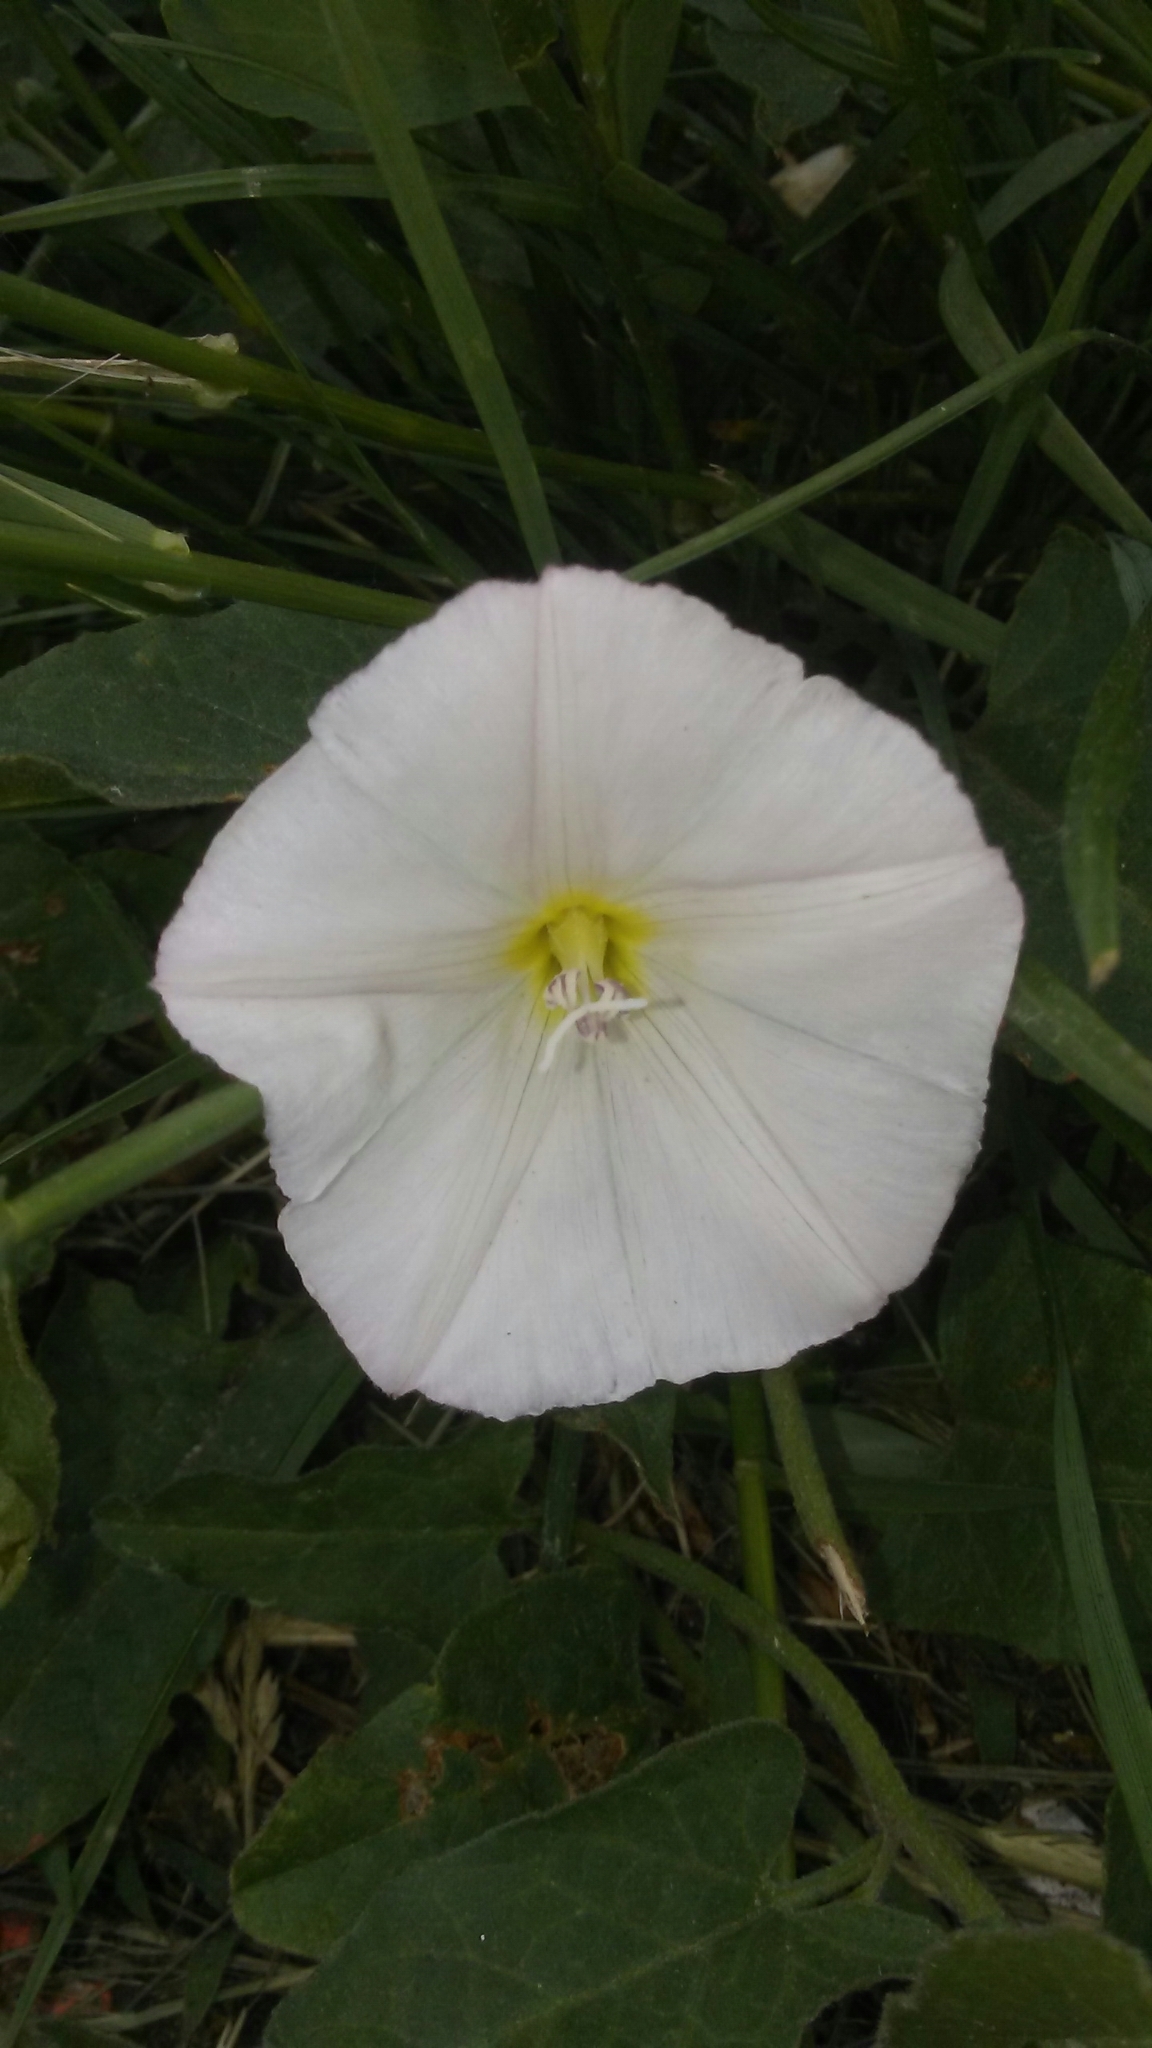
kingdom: Plantae
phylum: Tracheophyta
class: Magnoliopsida
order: Solanales
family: Convolvulaceae
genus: Convolvulus
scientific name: Convolvulus arvensis
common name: Field bindweed
